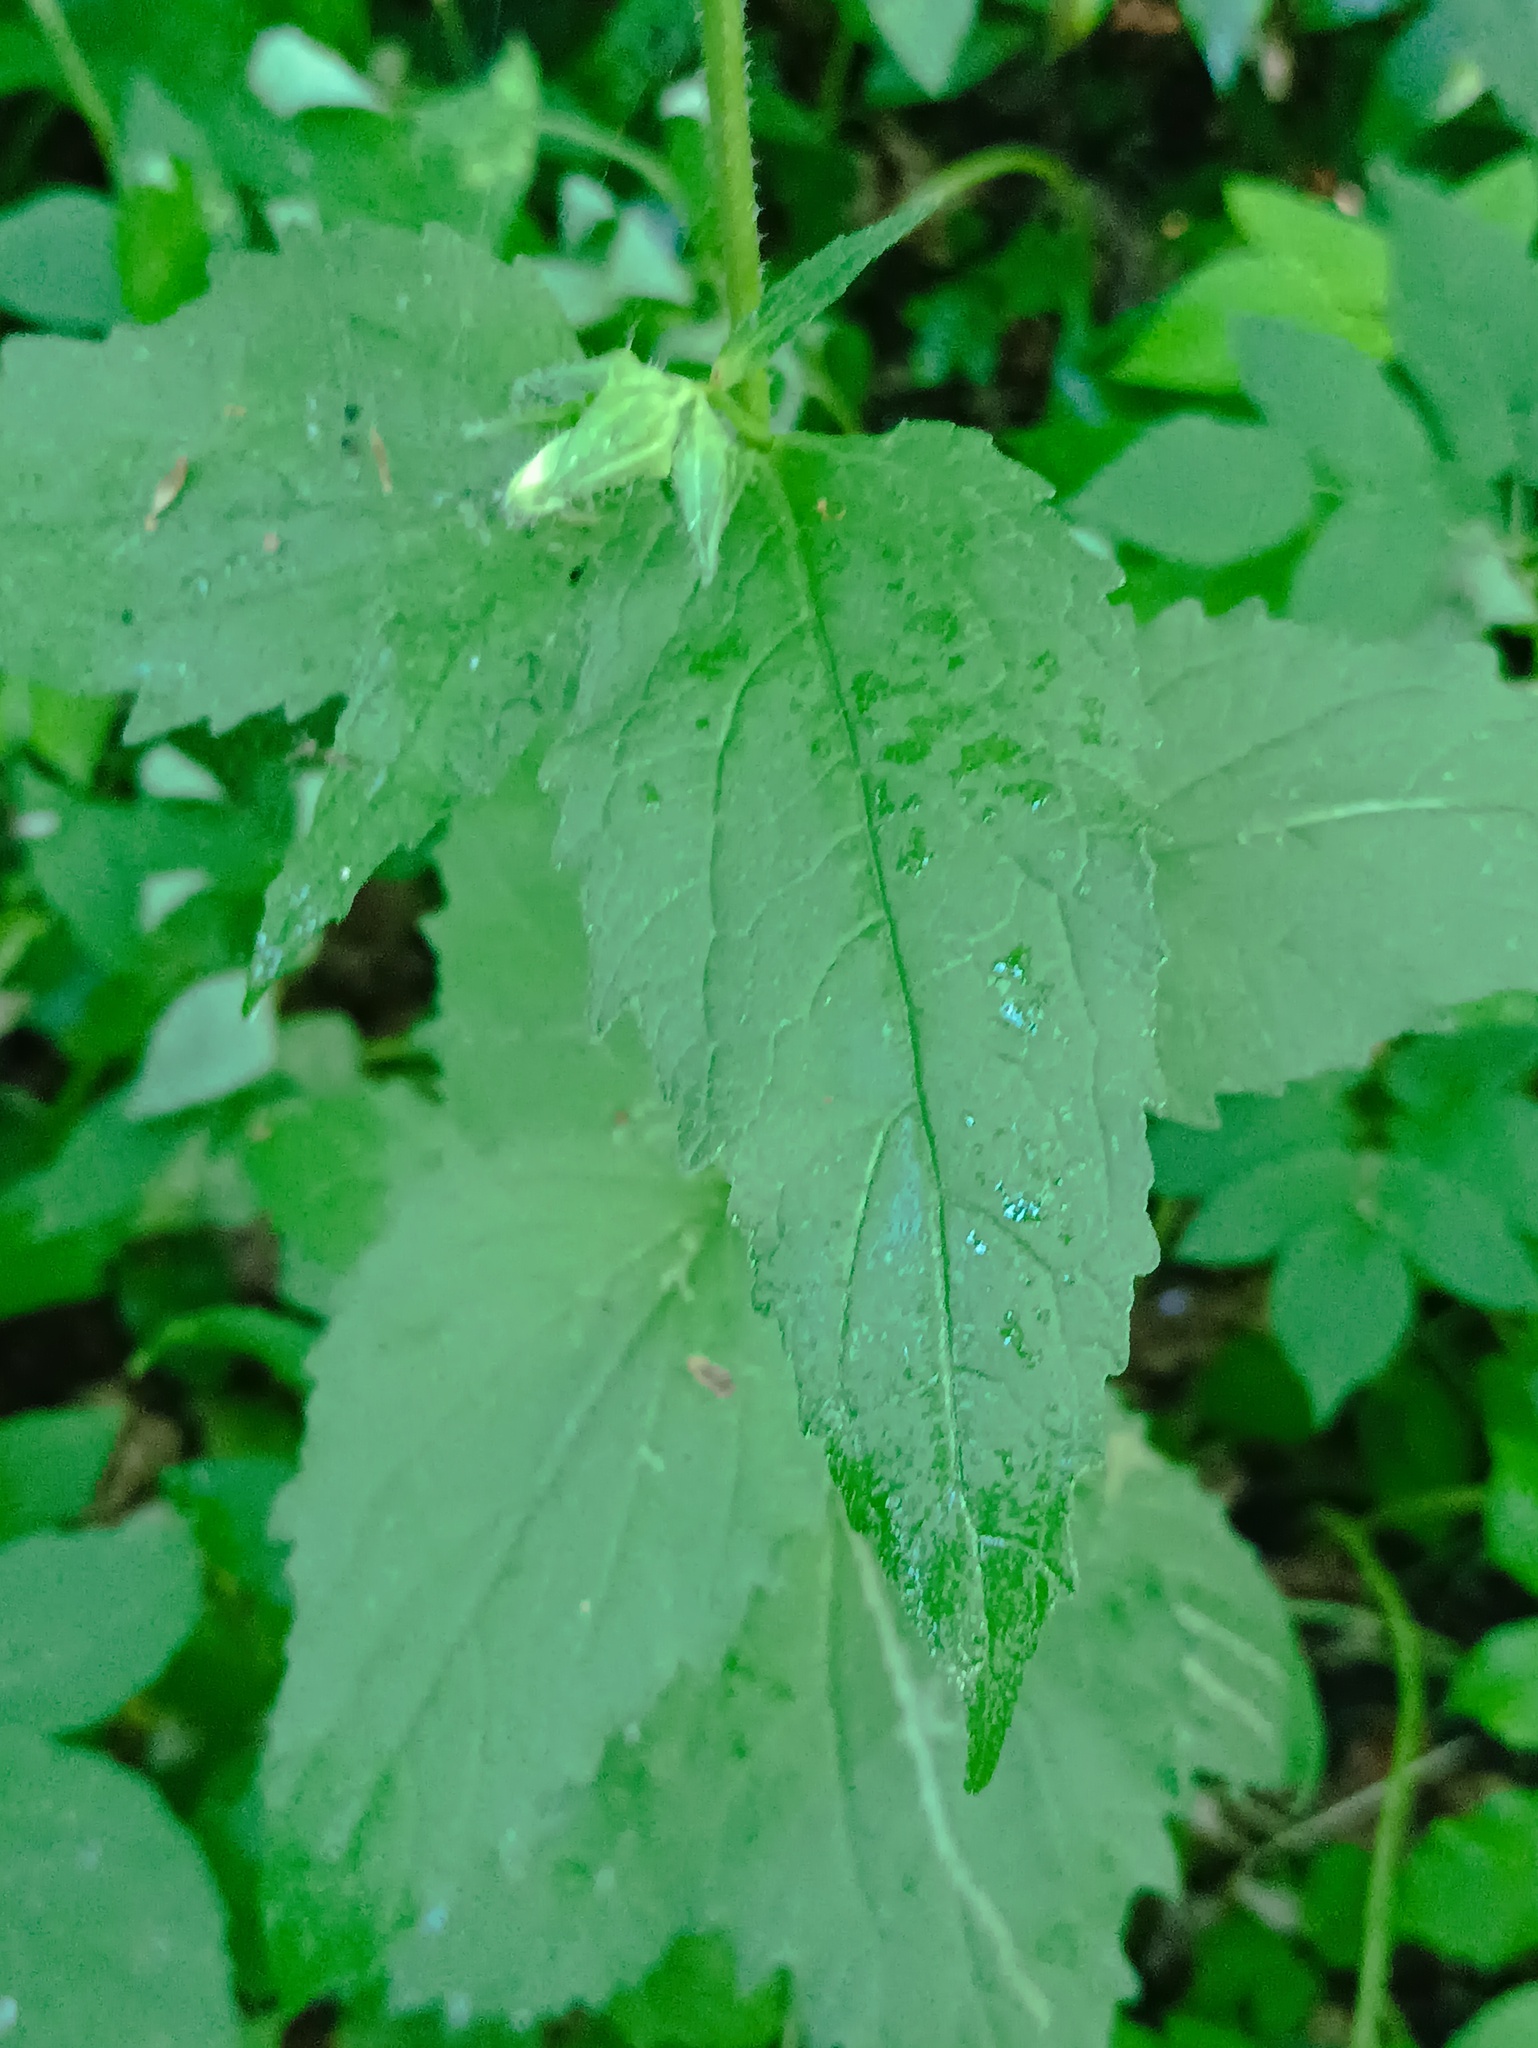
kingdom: Plantae
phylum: Tracheophyta
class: Magnoliopsida
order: Asterales
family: Campanulaceae
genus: Campanula
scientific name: Campanula trachelium
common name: Nettle-leaved bellflower
